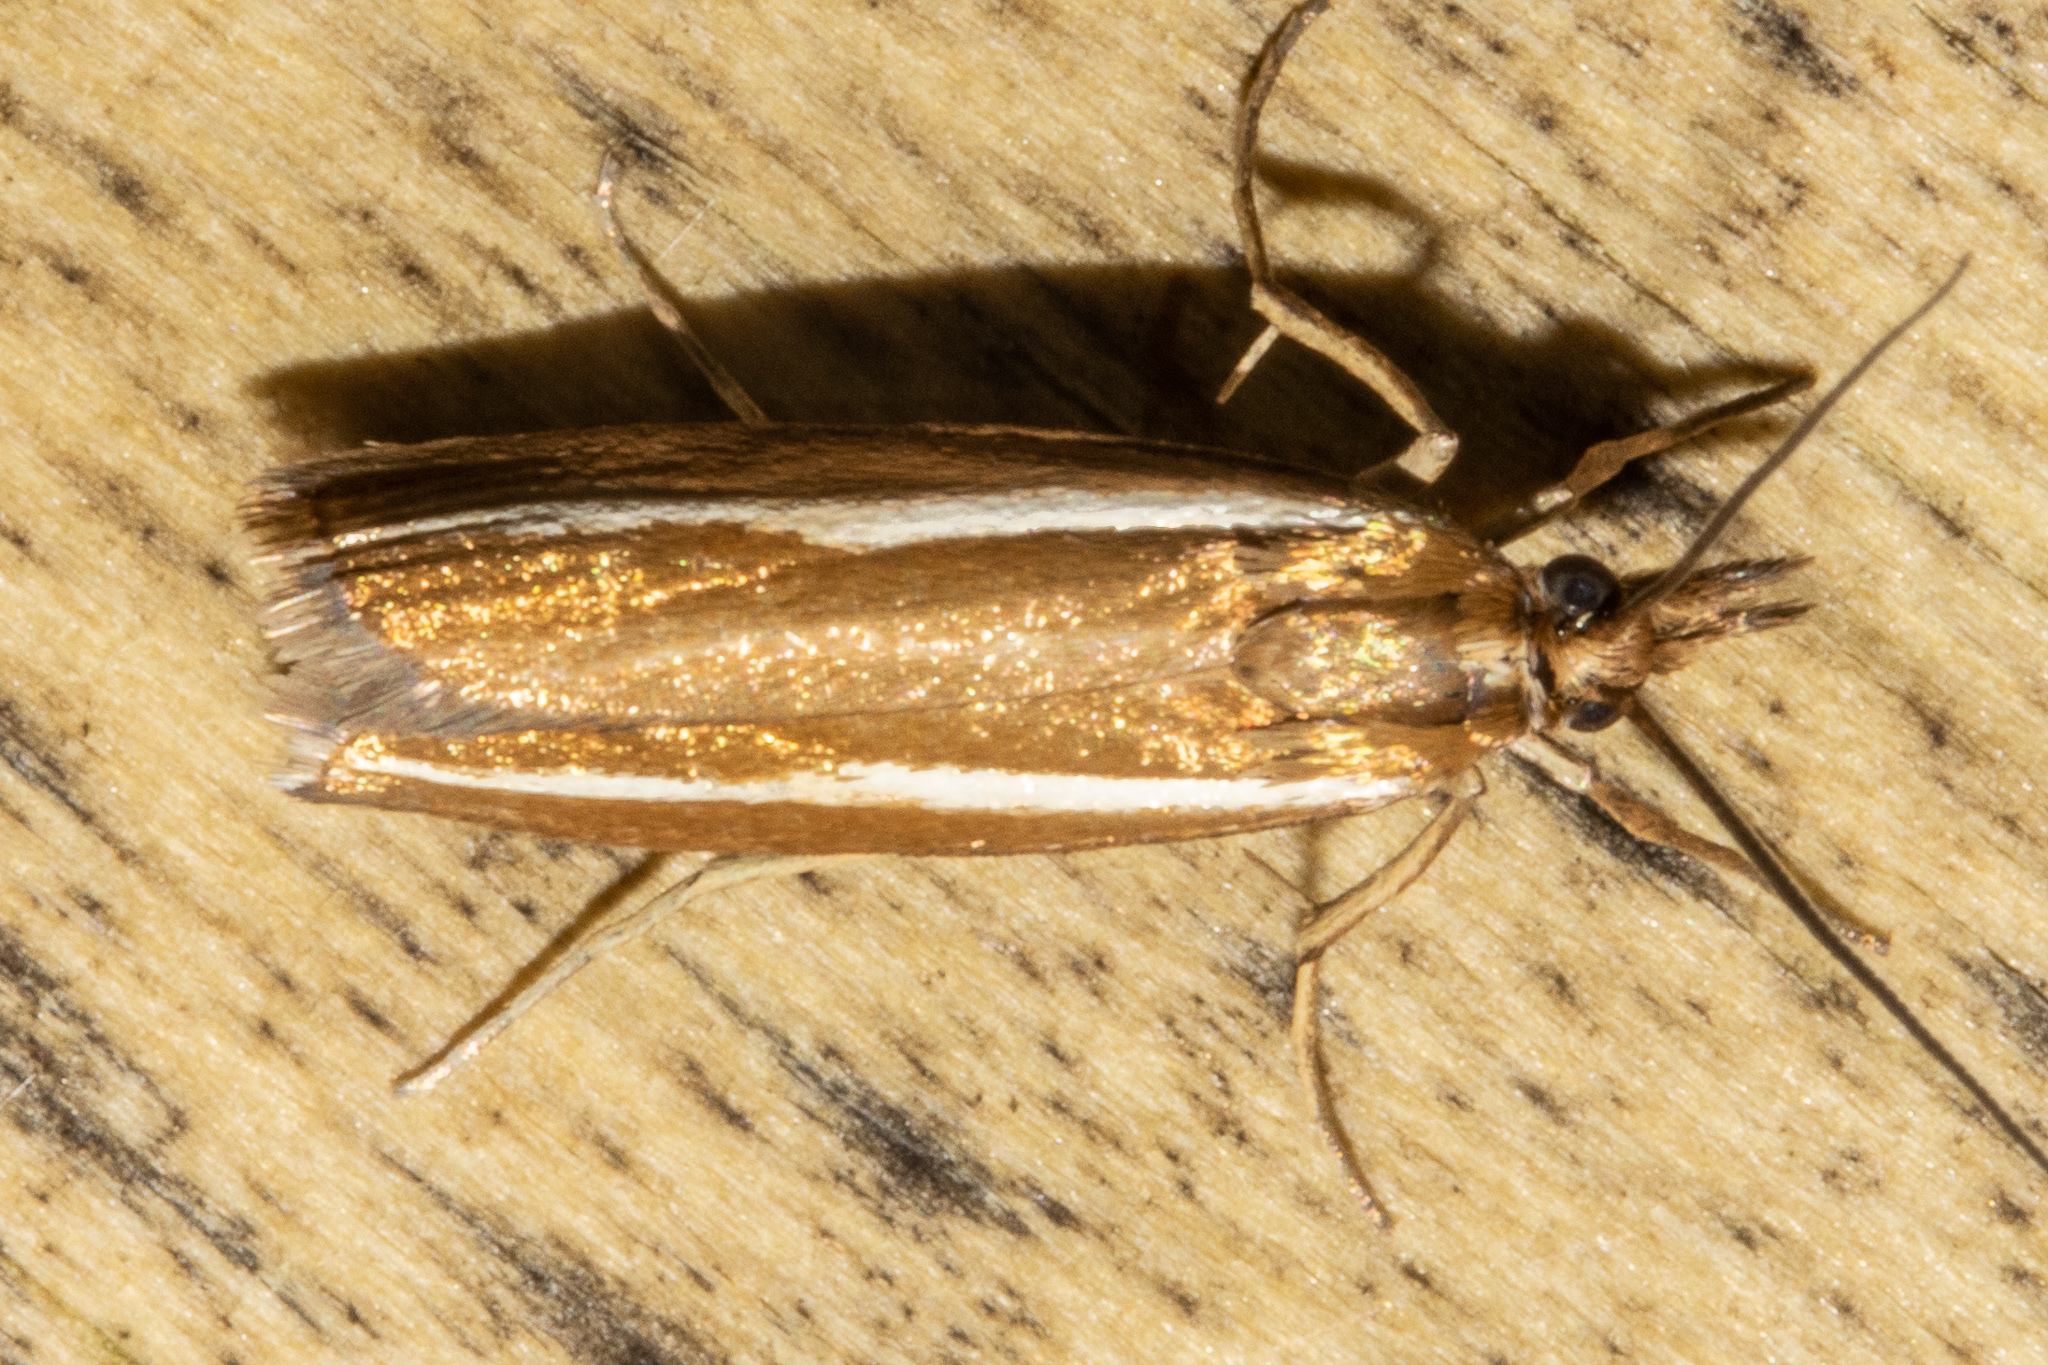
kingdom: Animalia
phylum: Arthropoda
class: Insecta
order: Lepidoptera
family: Crambidae
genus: Orocrambus
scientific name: Orocrambus melitastes
